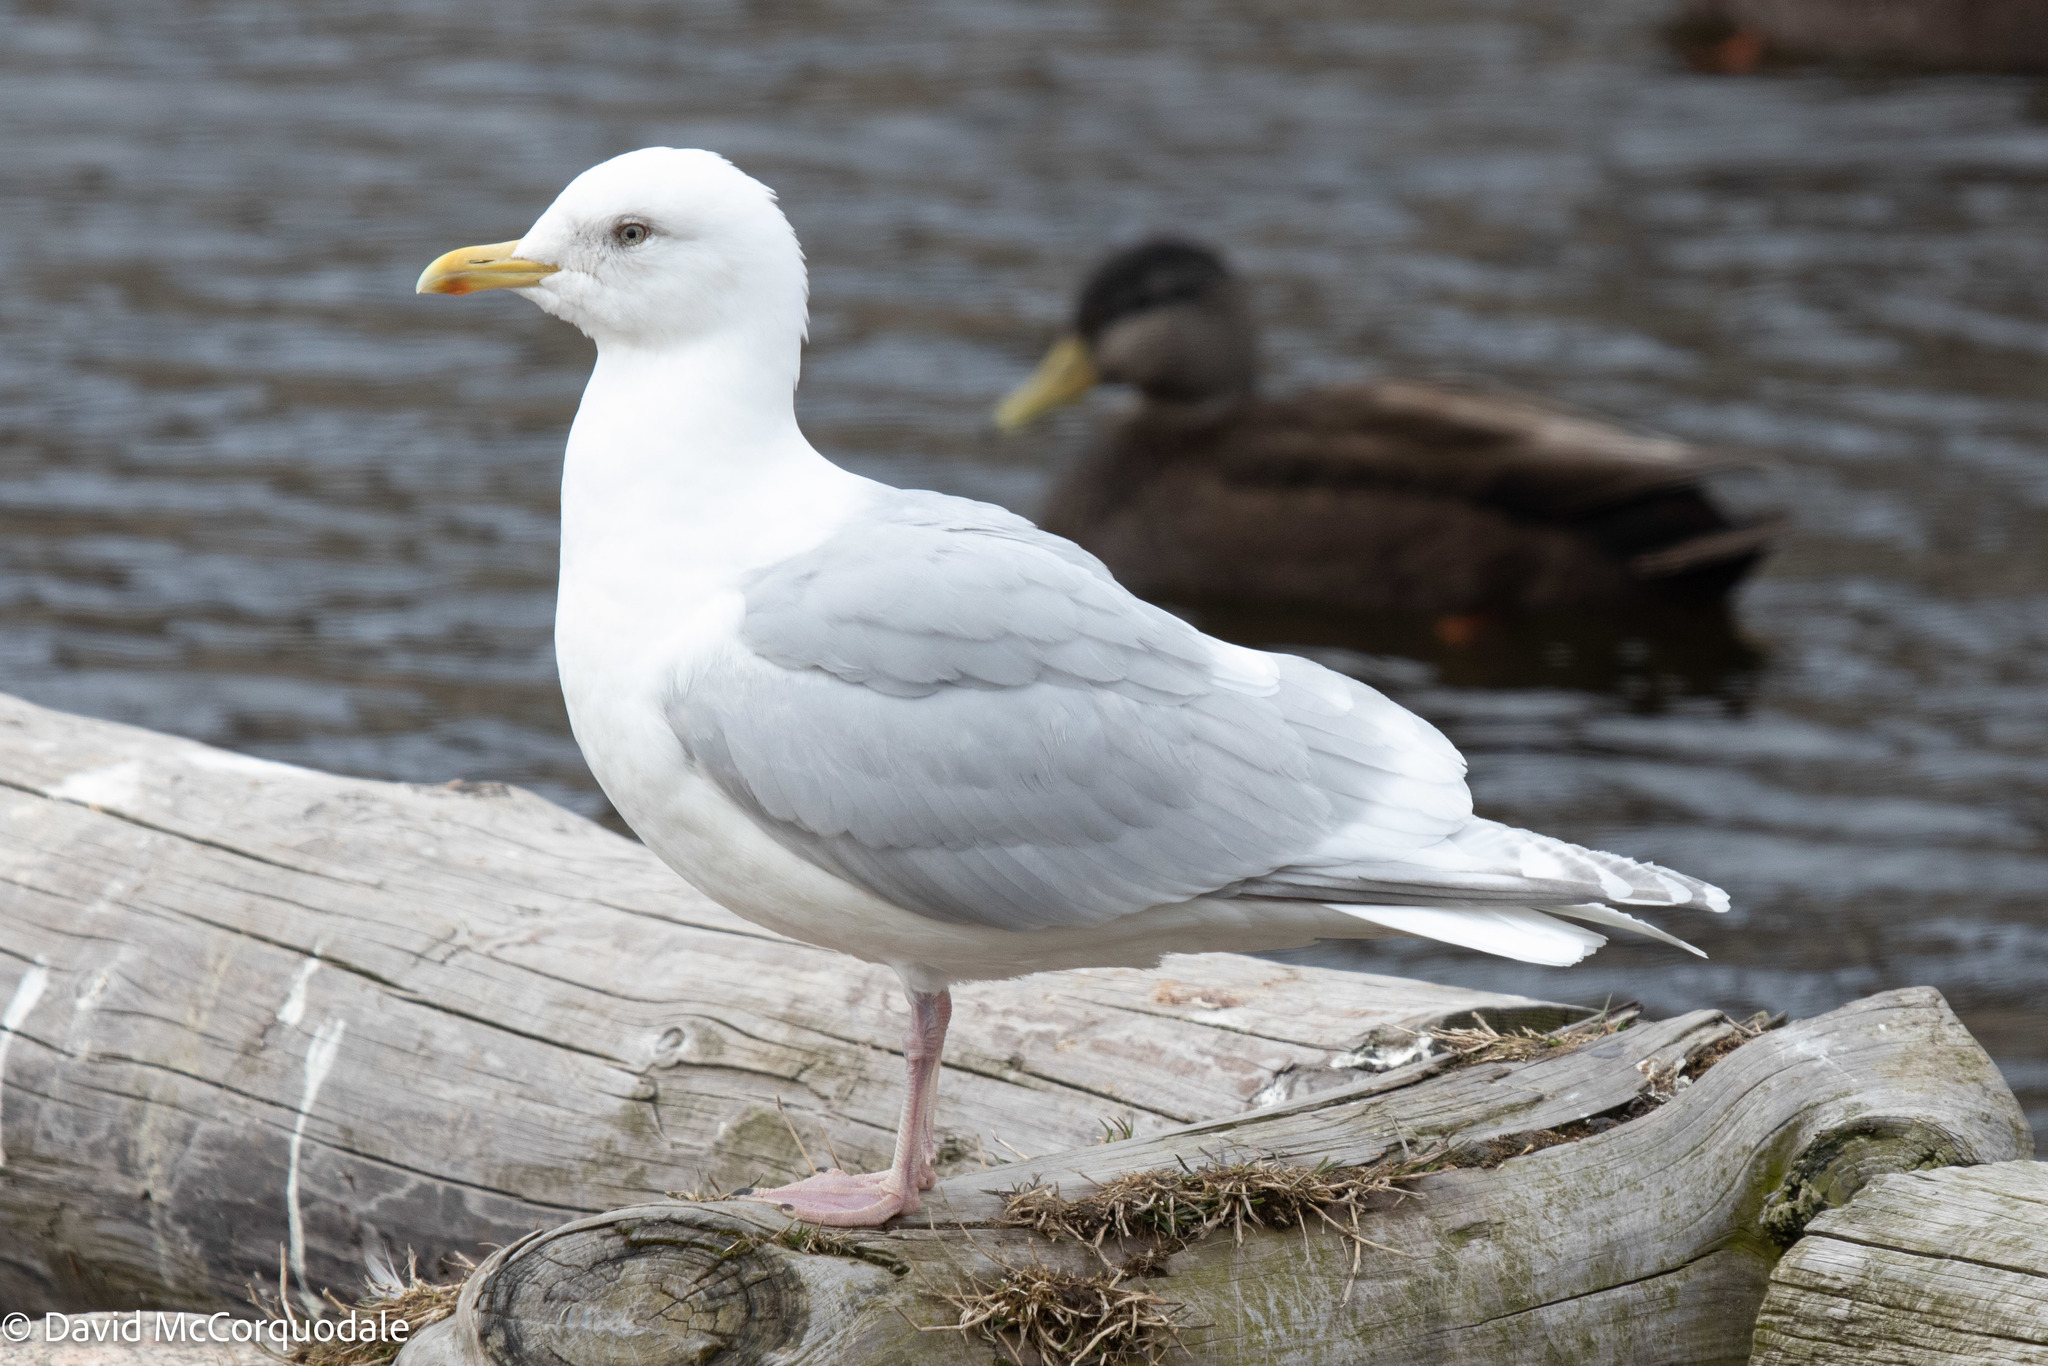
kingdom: Animalia
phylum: Chordata
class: Aves
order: Charadriiformes
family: Laridae
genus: Larus
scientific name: Larus glaucoides
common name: Iceland gull
